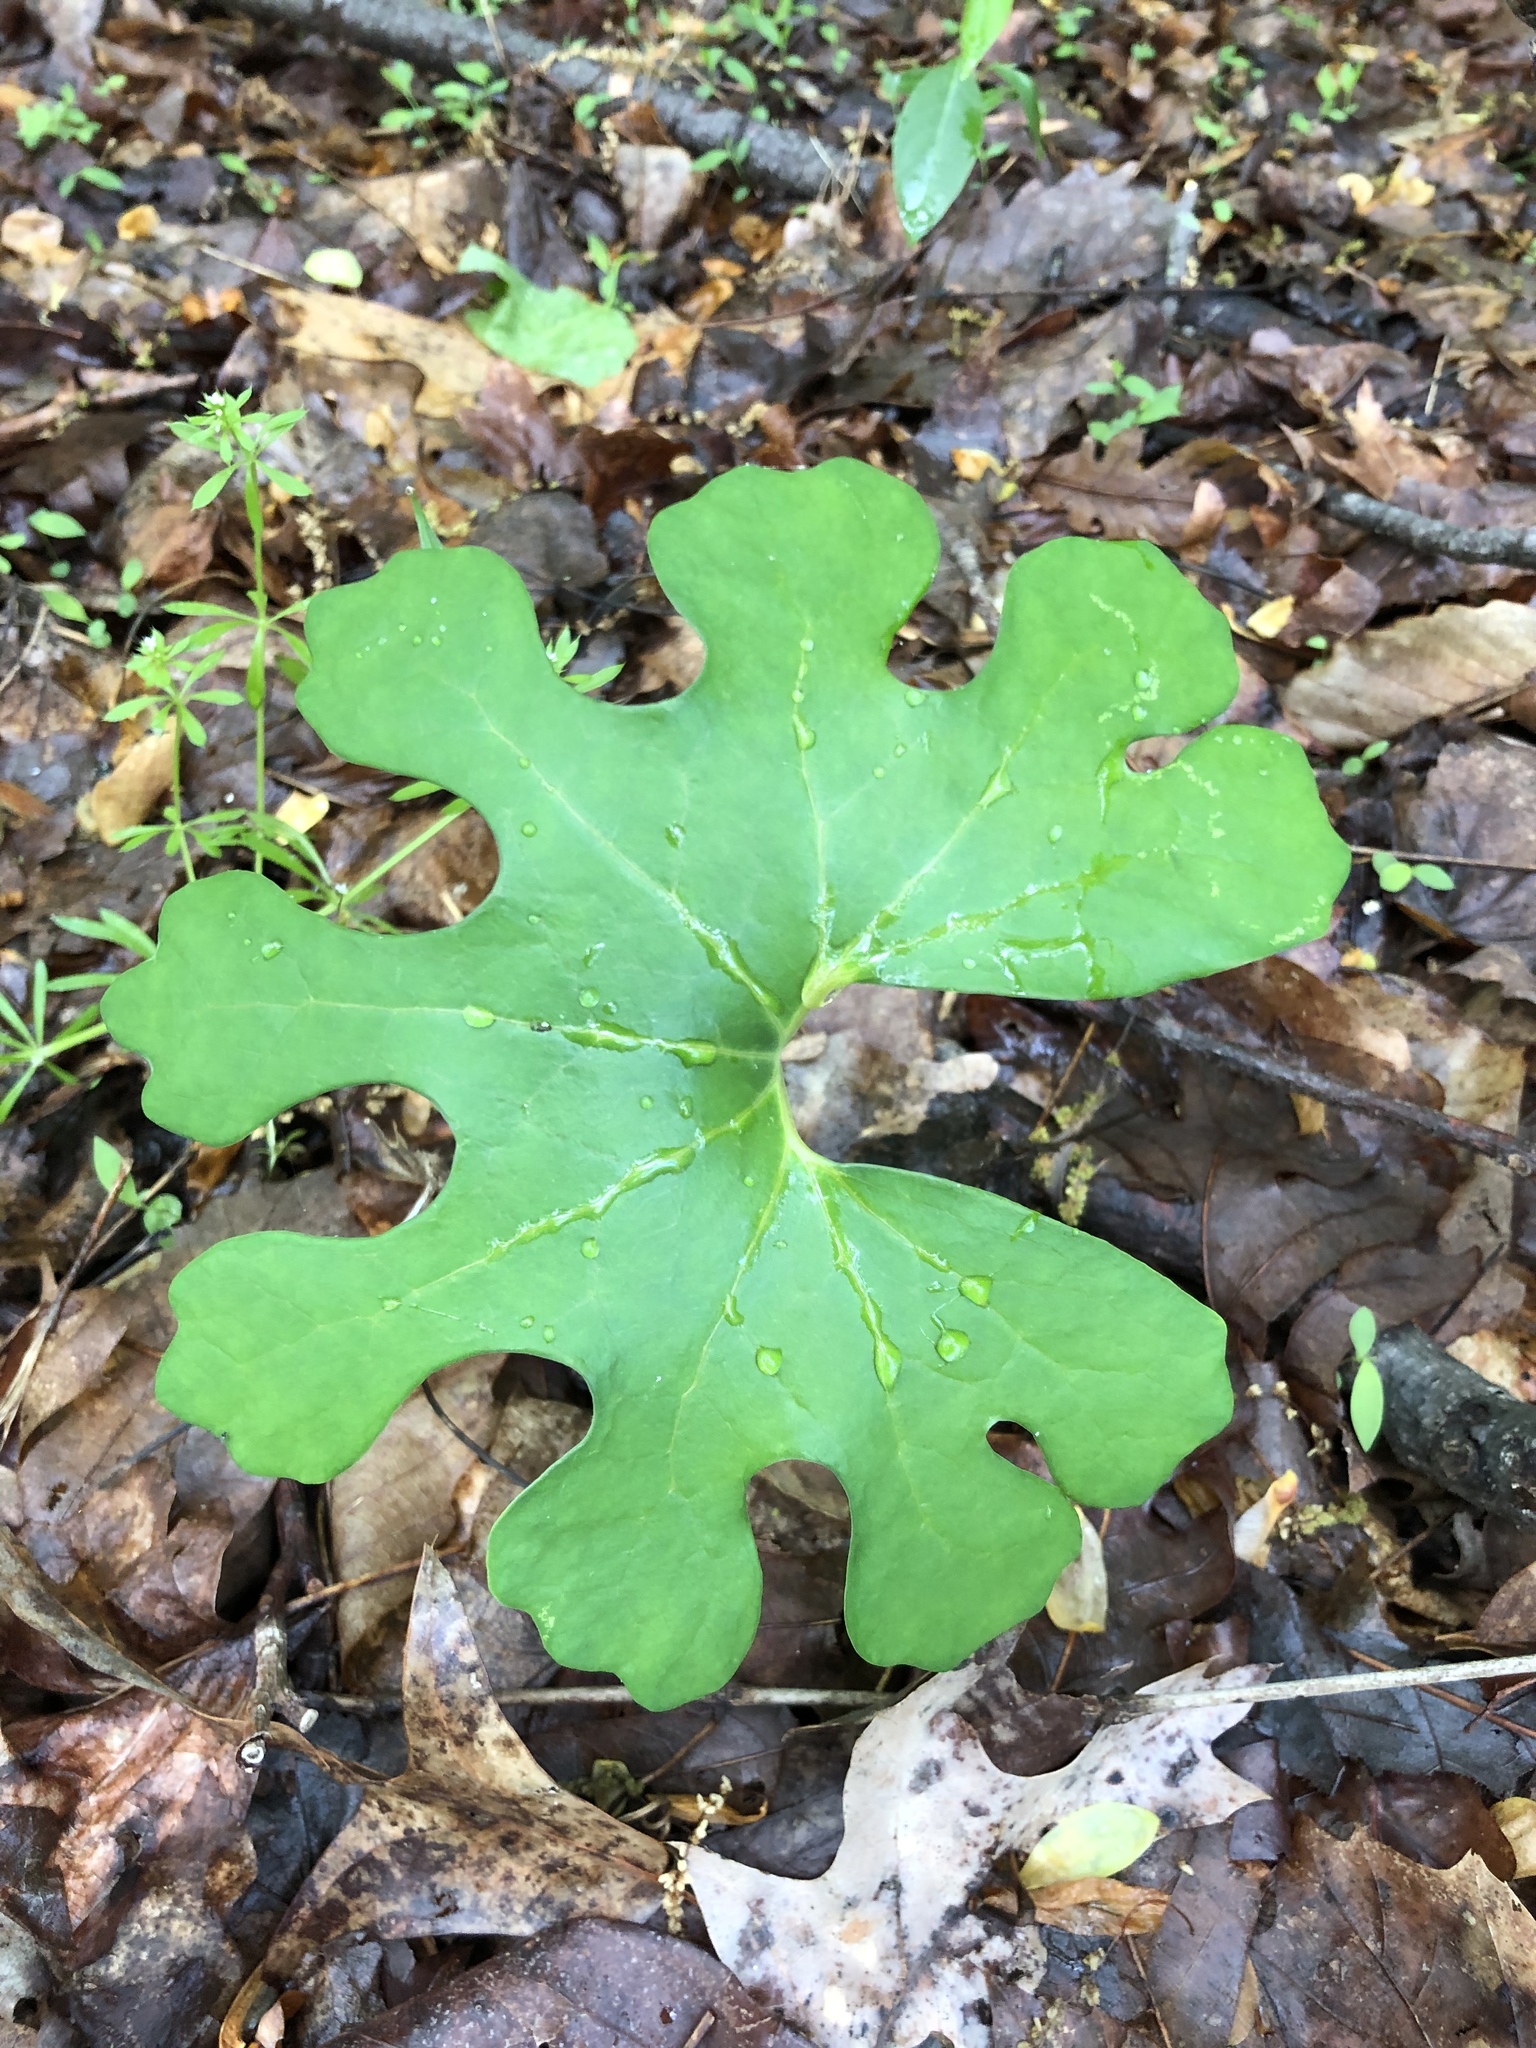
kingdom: Plantae
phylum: Tracheophyta
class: Magnoliopsida
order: Ranunculales
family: Papaveraceae
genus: Sanguinaria
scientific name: Sanguinaria canadensis
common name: Bloodroot
